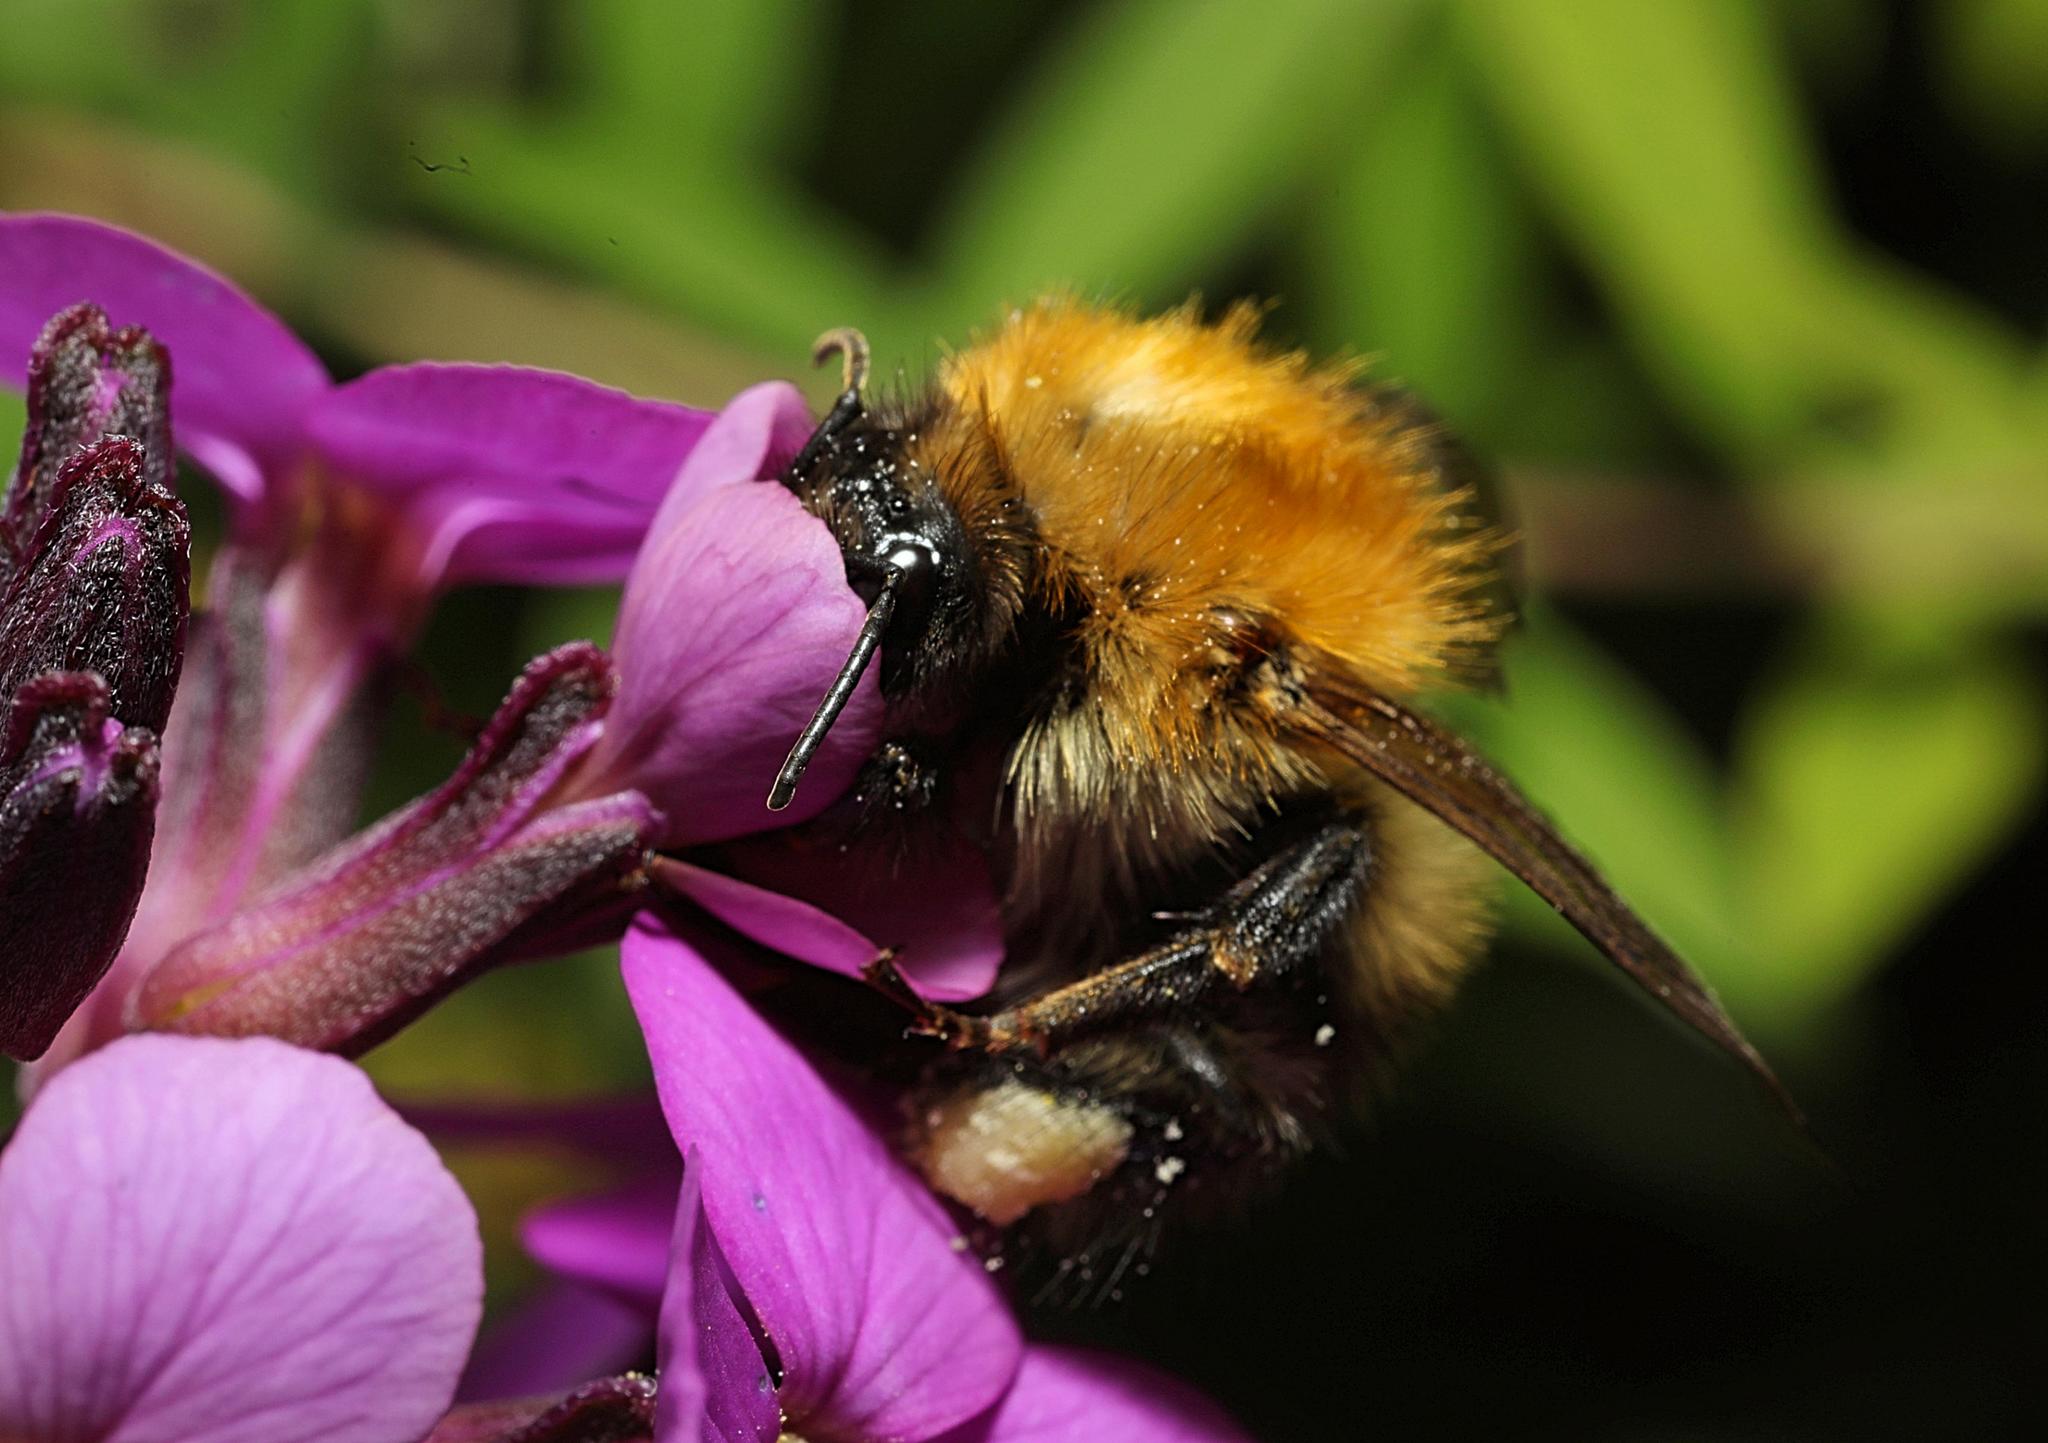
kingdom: Animalia
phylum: Arthropoda
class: Insecta
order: Hymenoptera
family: Apidae
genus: Bombus
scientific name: Bombus pascuorum
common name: Common carder bee
